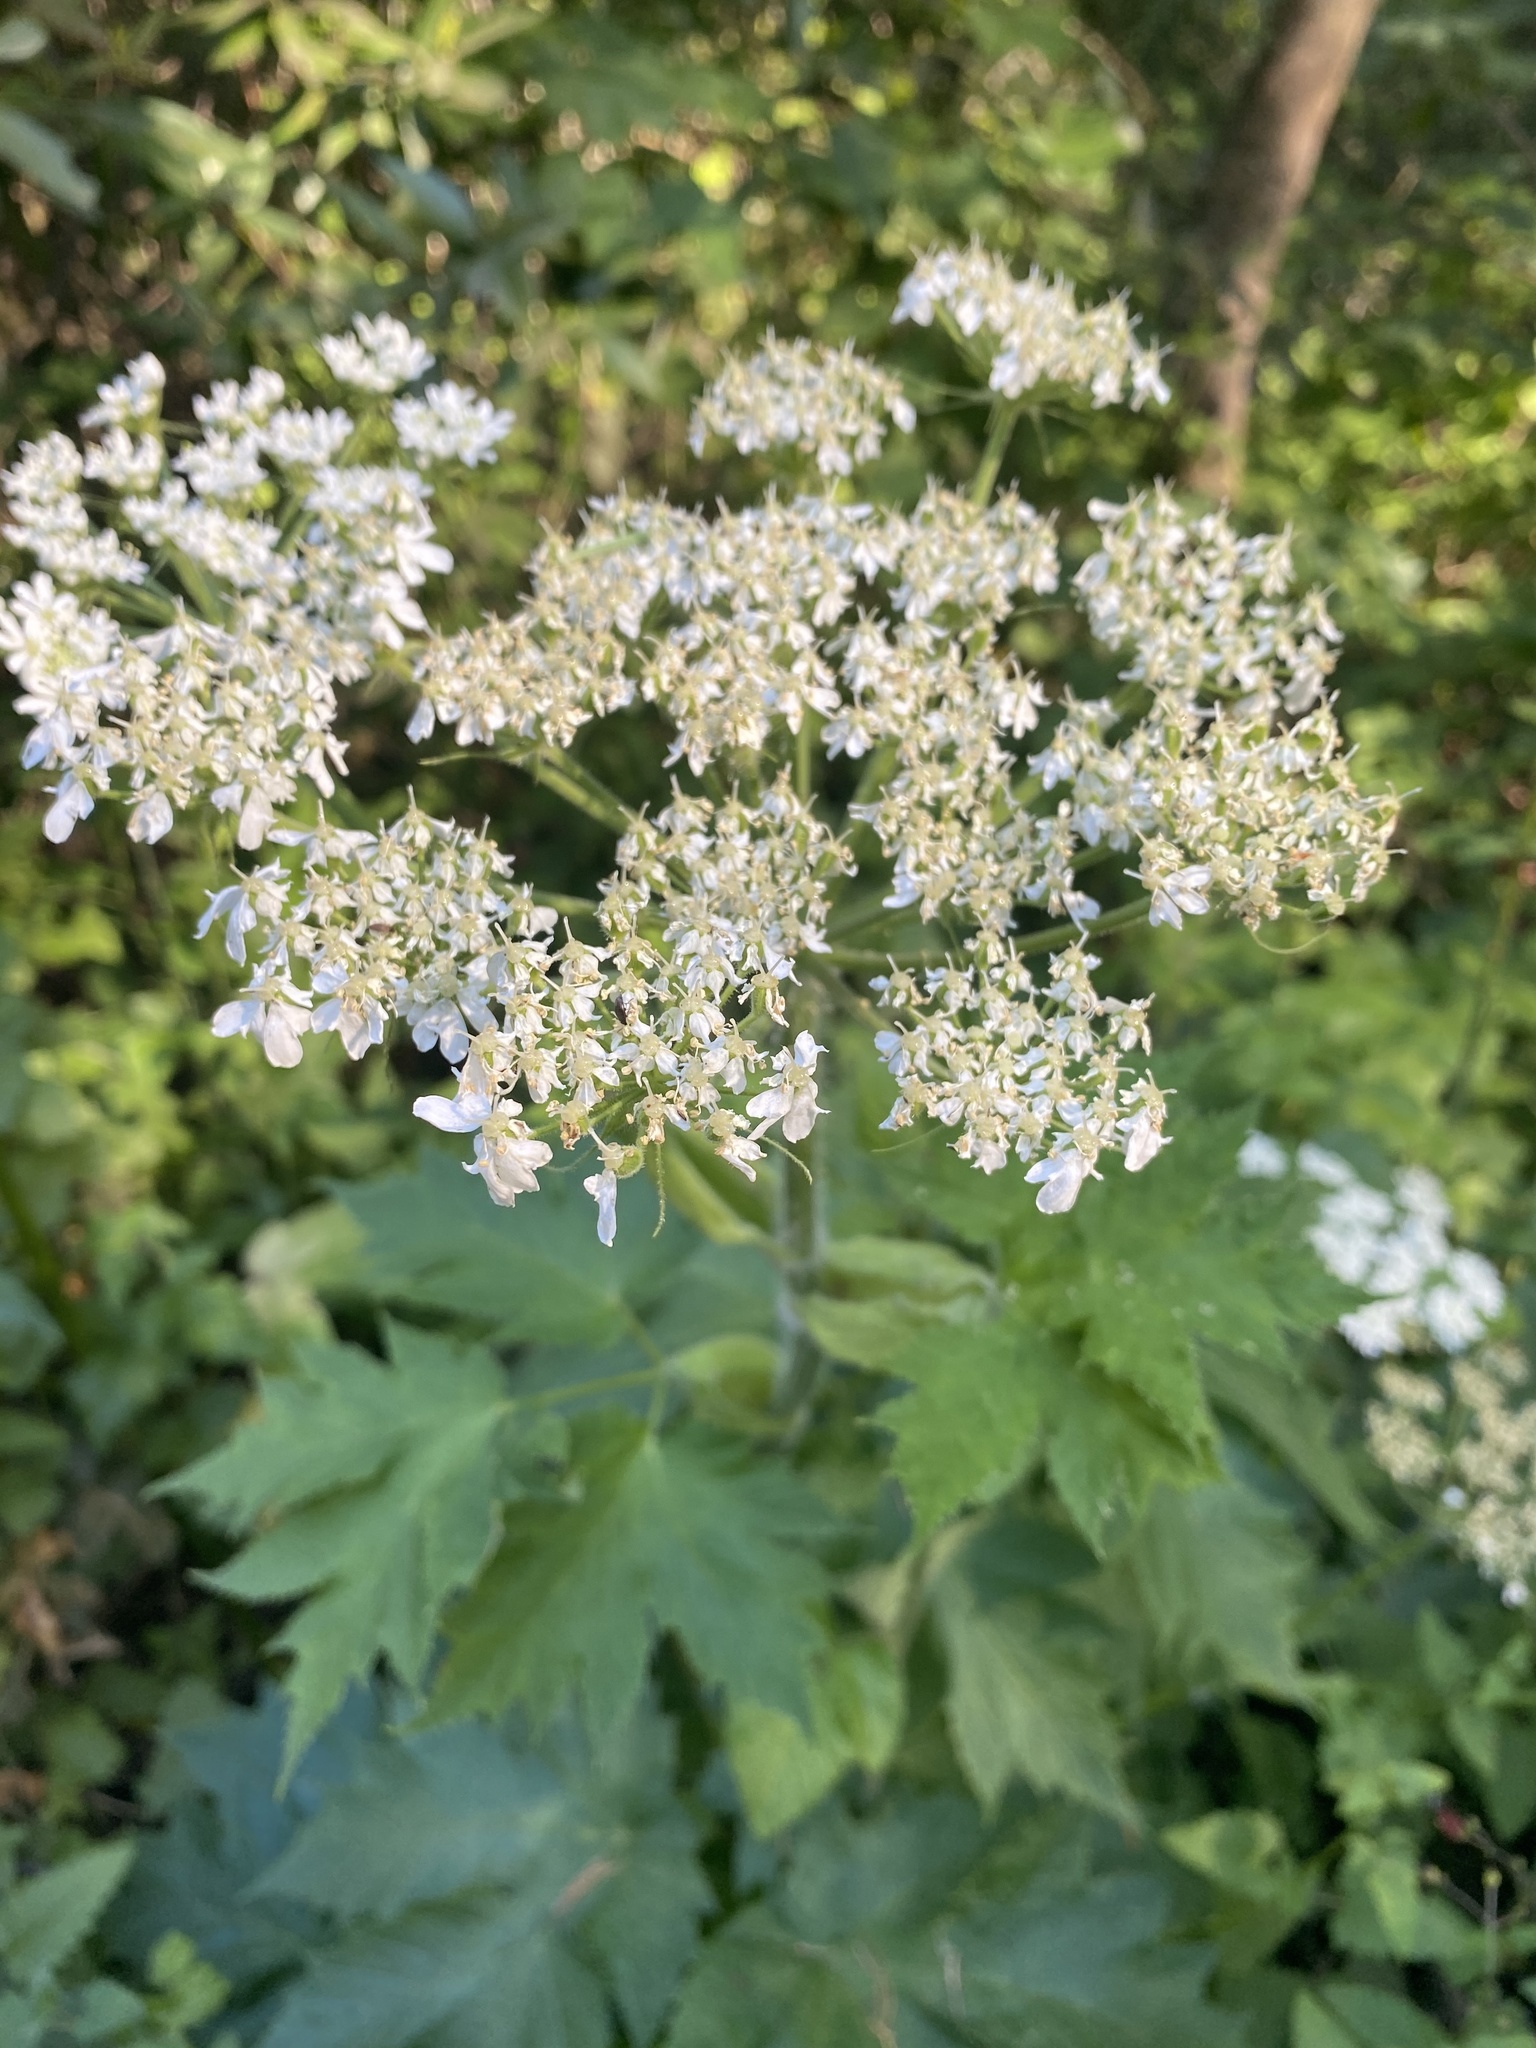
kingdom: Plantae
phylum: Tracheophyta
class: Magnoliopsida
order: Apiales
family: Apiaceae
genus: Heracleum
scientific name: Heracleum maximum
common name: American cow parsnip
